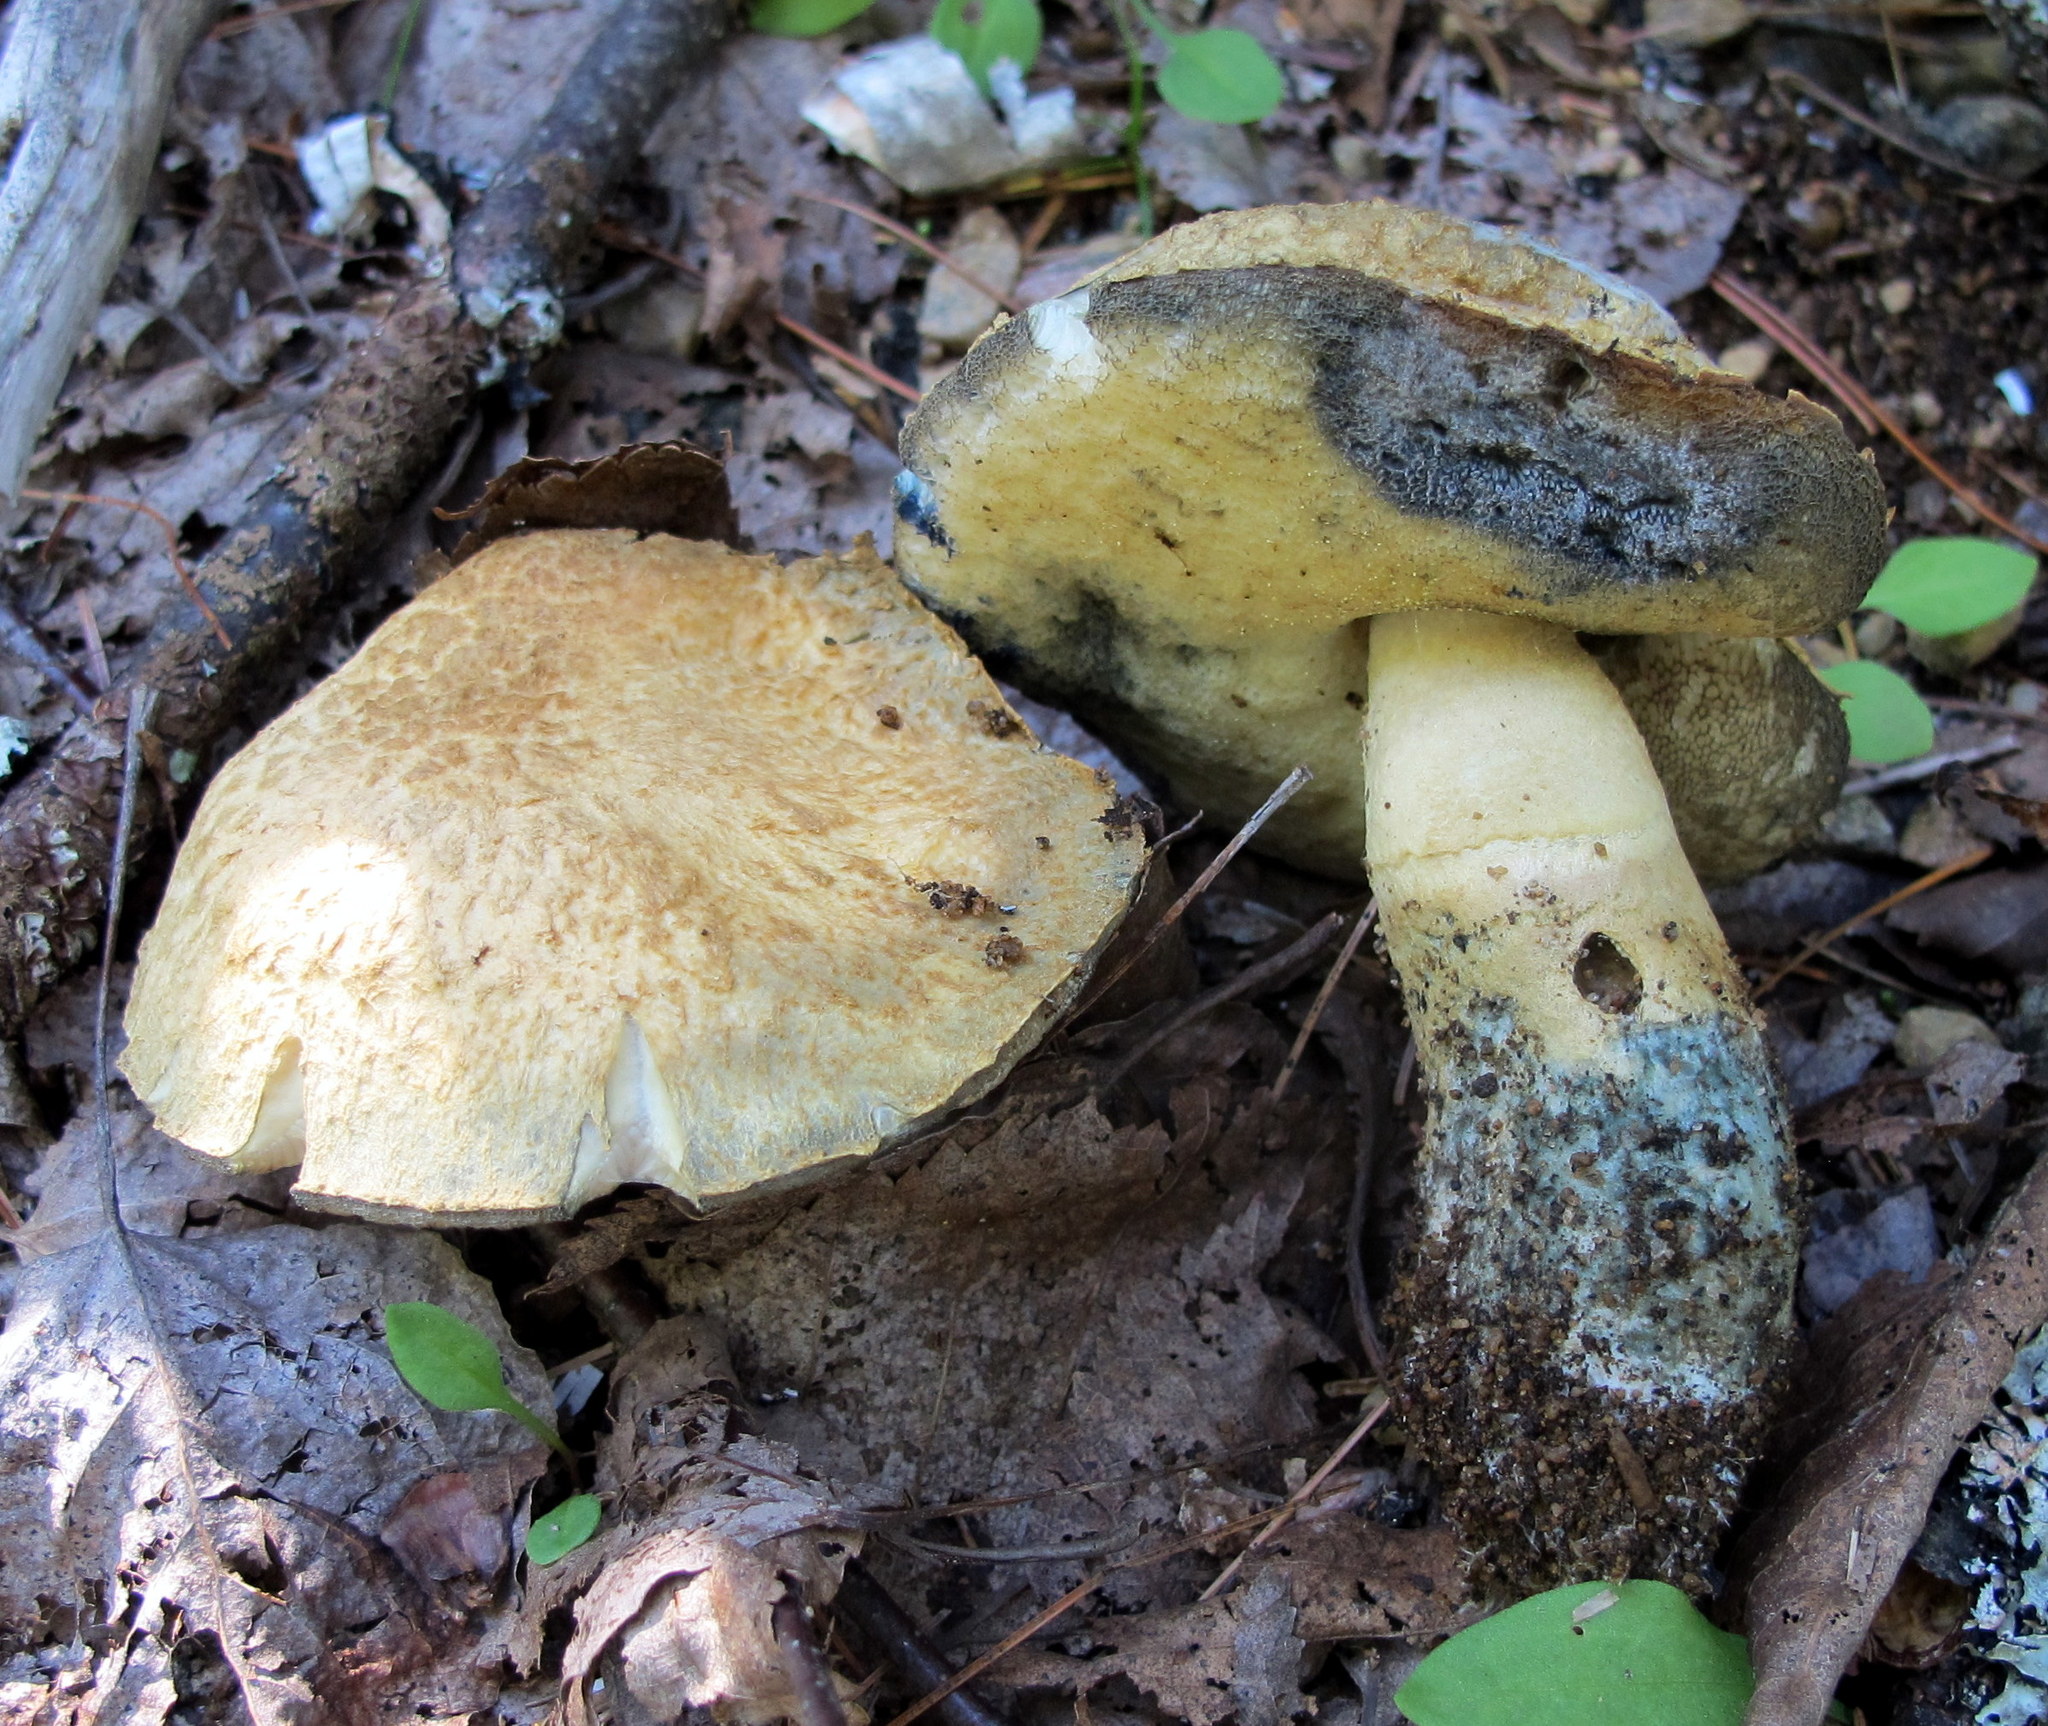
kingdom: Fungi
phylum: Basidiomycota
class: Agaricomycetes
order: Boletales
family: Gyroporaceae
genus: Gyroporus
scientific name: Gyroporus cyanescens
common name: Cornflower bolete
